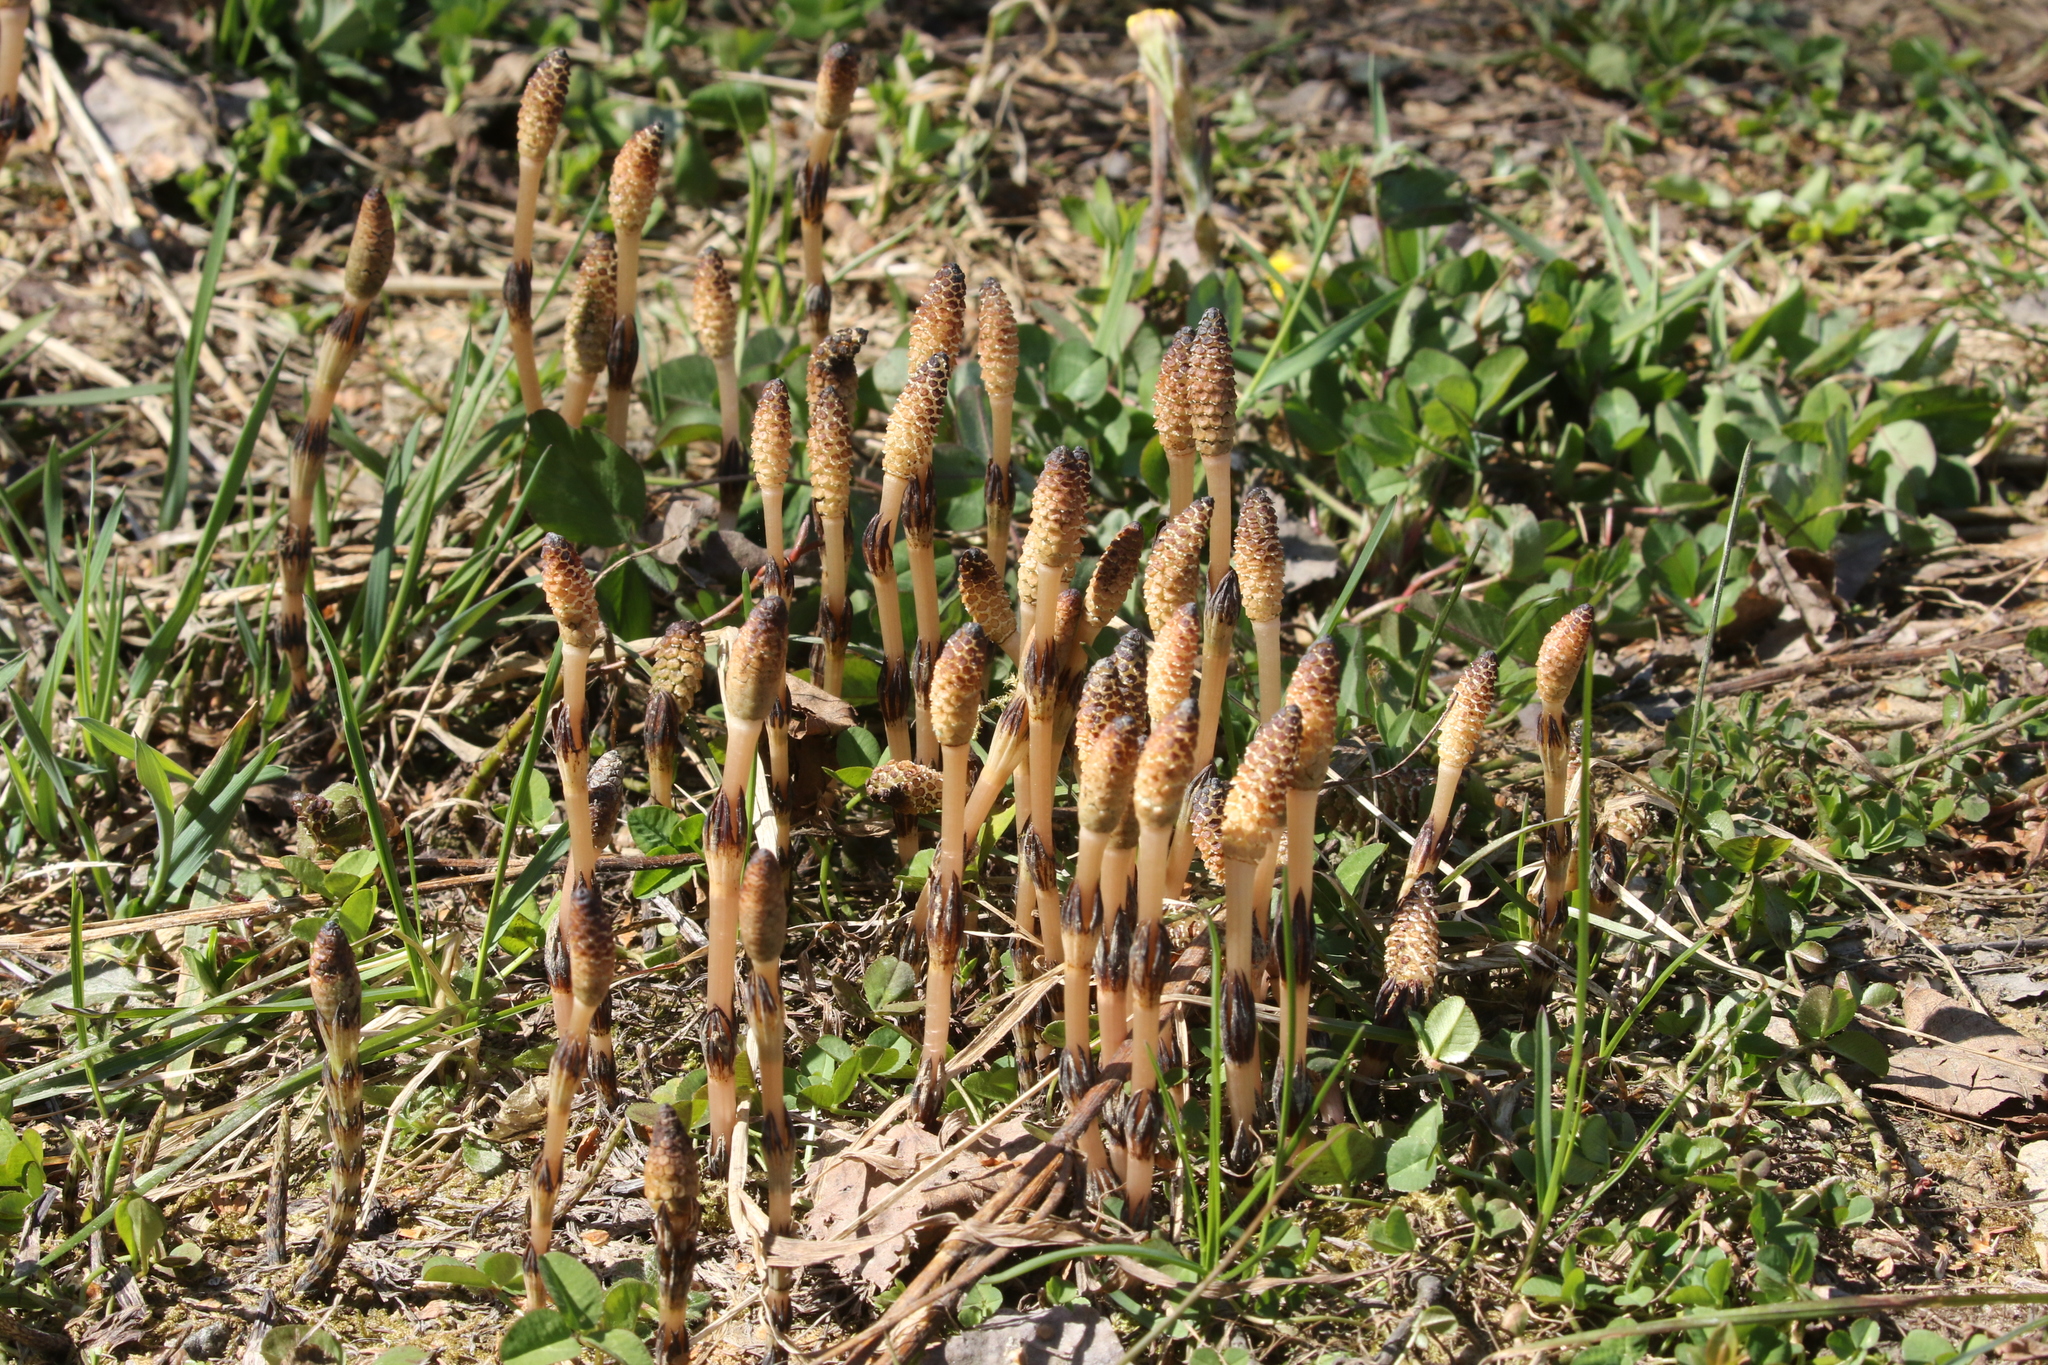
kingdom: Plantae
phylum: Tracheophyta
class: Polypodiopsida
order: Equisetales
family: Equisetaceae
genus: Equisetum
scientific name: Equisetum arvense
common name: Field horsetail
